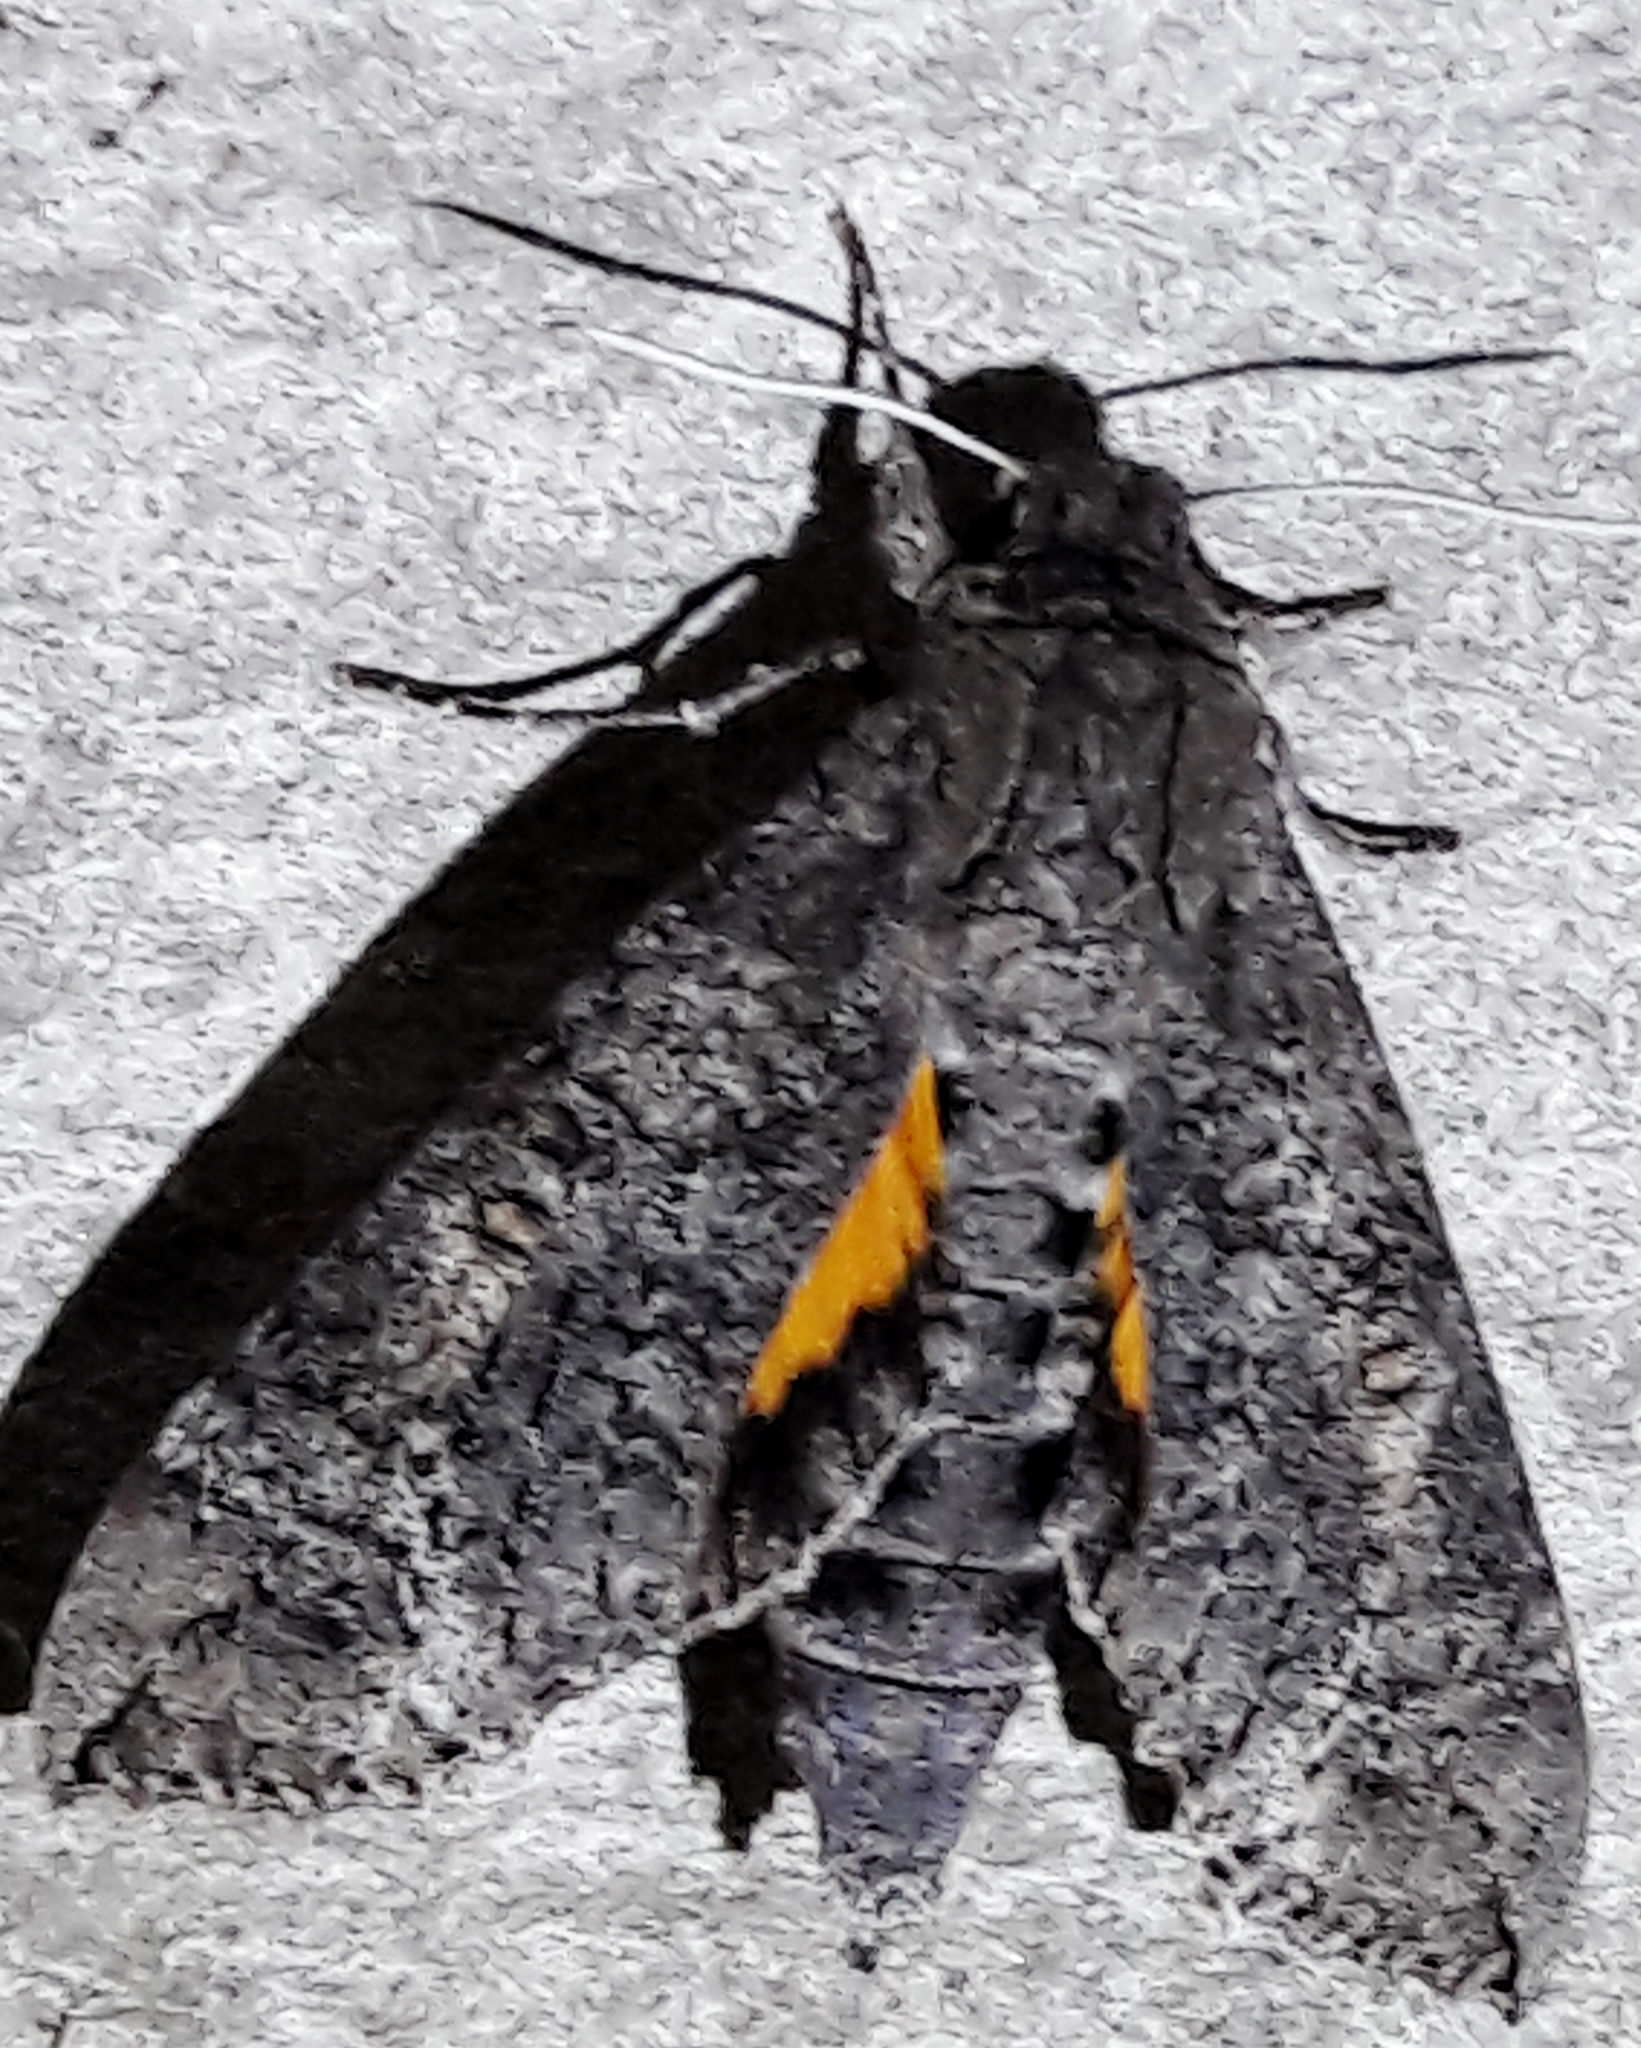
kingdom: Animalia
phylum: Arthropoda
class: Insecta
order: Lepidoptera
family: Sphingidae
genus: Isognathus
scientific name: Isognathus allamandae
